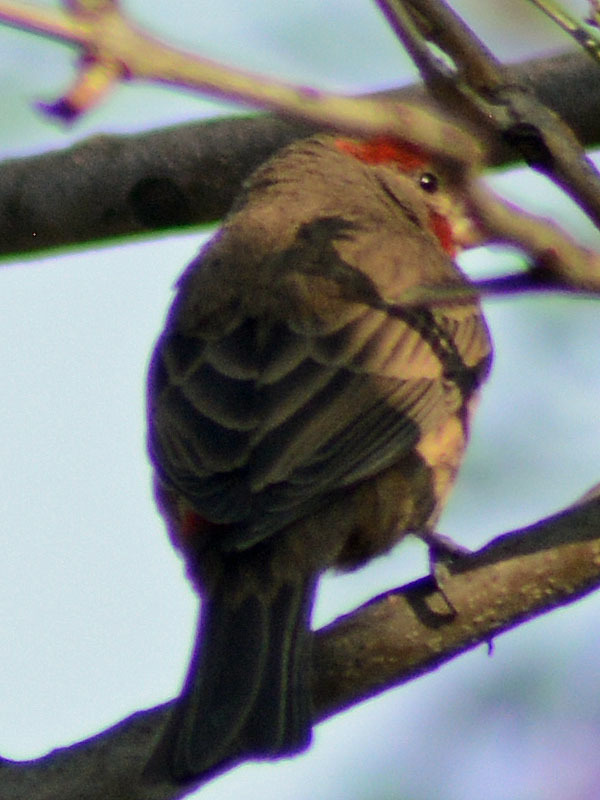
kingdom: Animalia
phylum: Chordata
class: Aves
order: Passeriformes
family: Fringillidae
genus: Haemorhous
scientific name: Haemorhous mexicanus
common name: House finch
